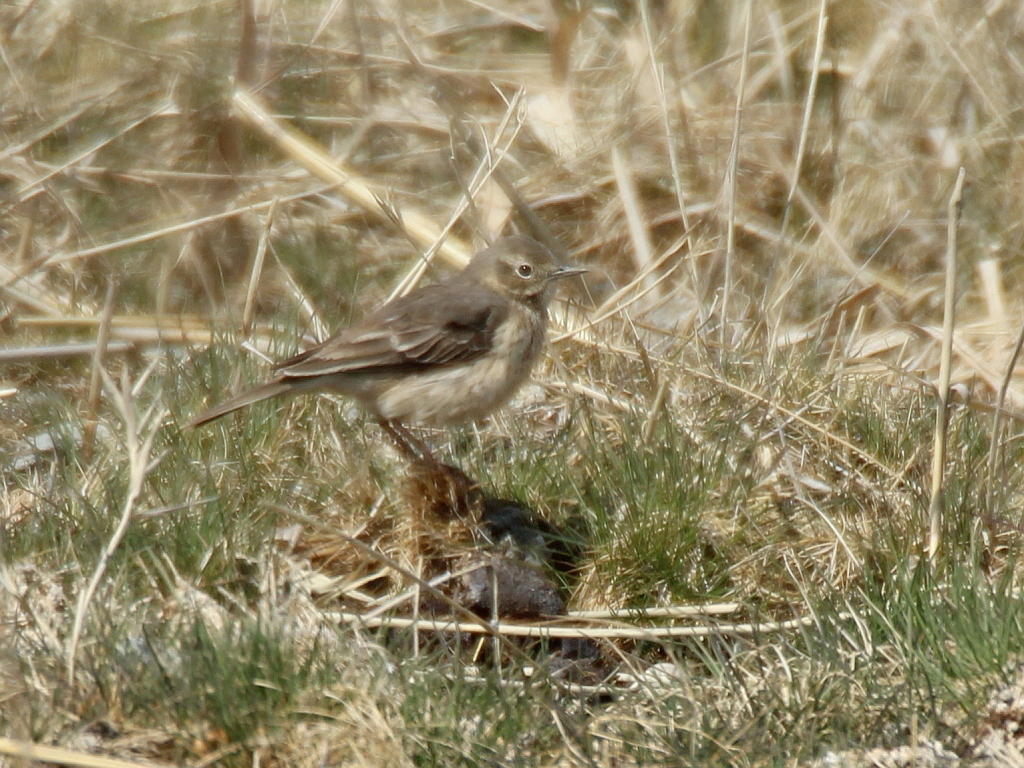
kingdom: Animalia
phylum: Chordata
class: Aves
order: Passeriformes
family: Motacillidae
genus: Anthus
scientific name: Anthus rubescens
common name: Buff-bellied pipit
